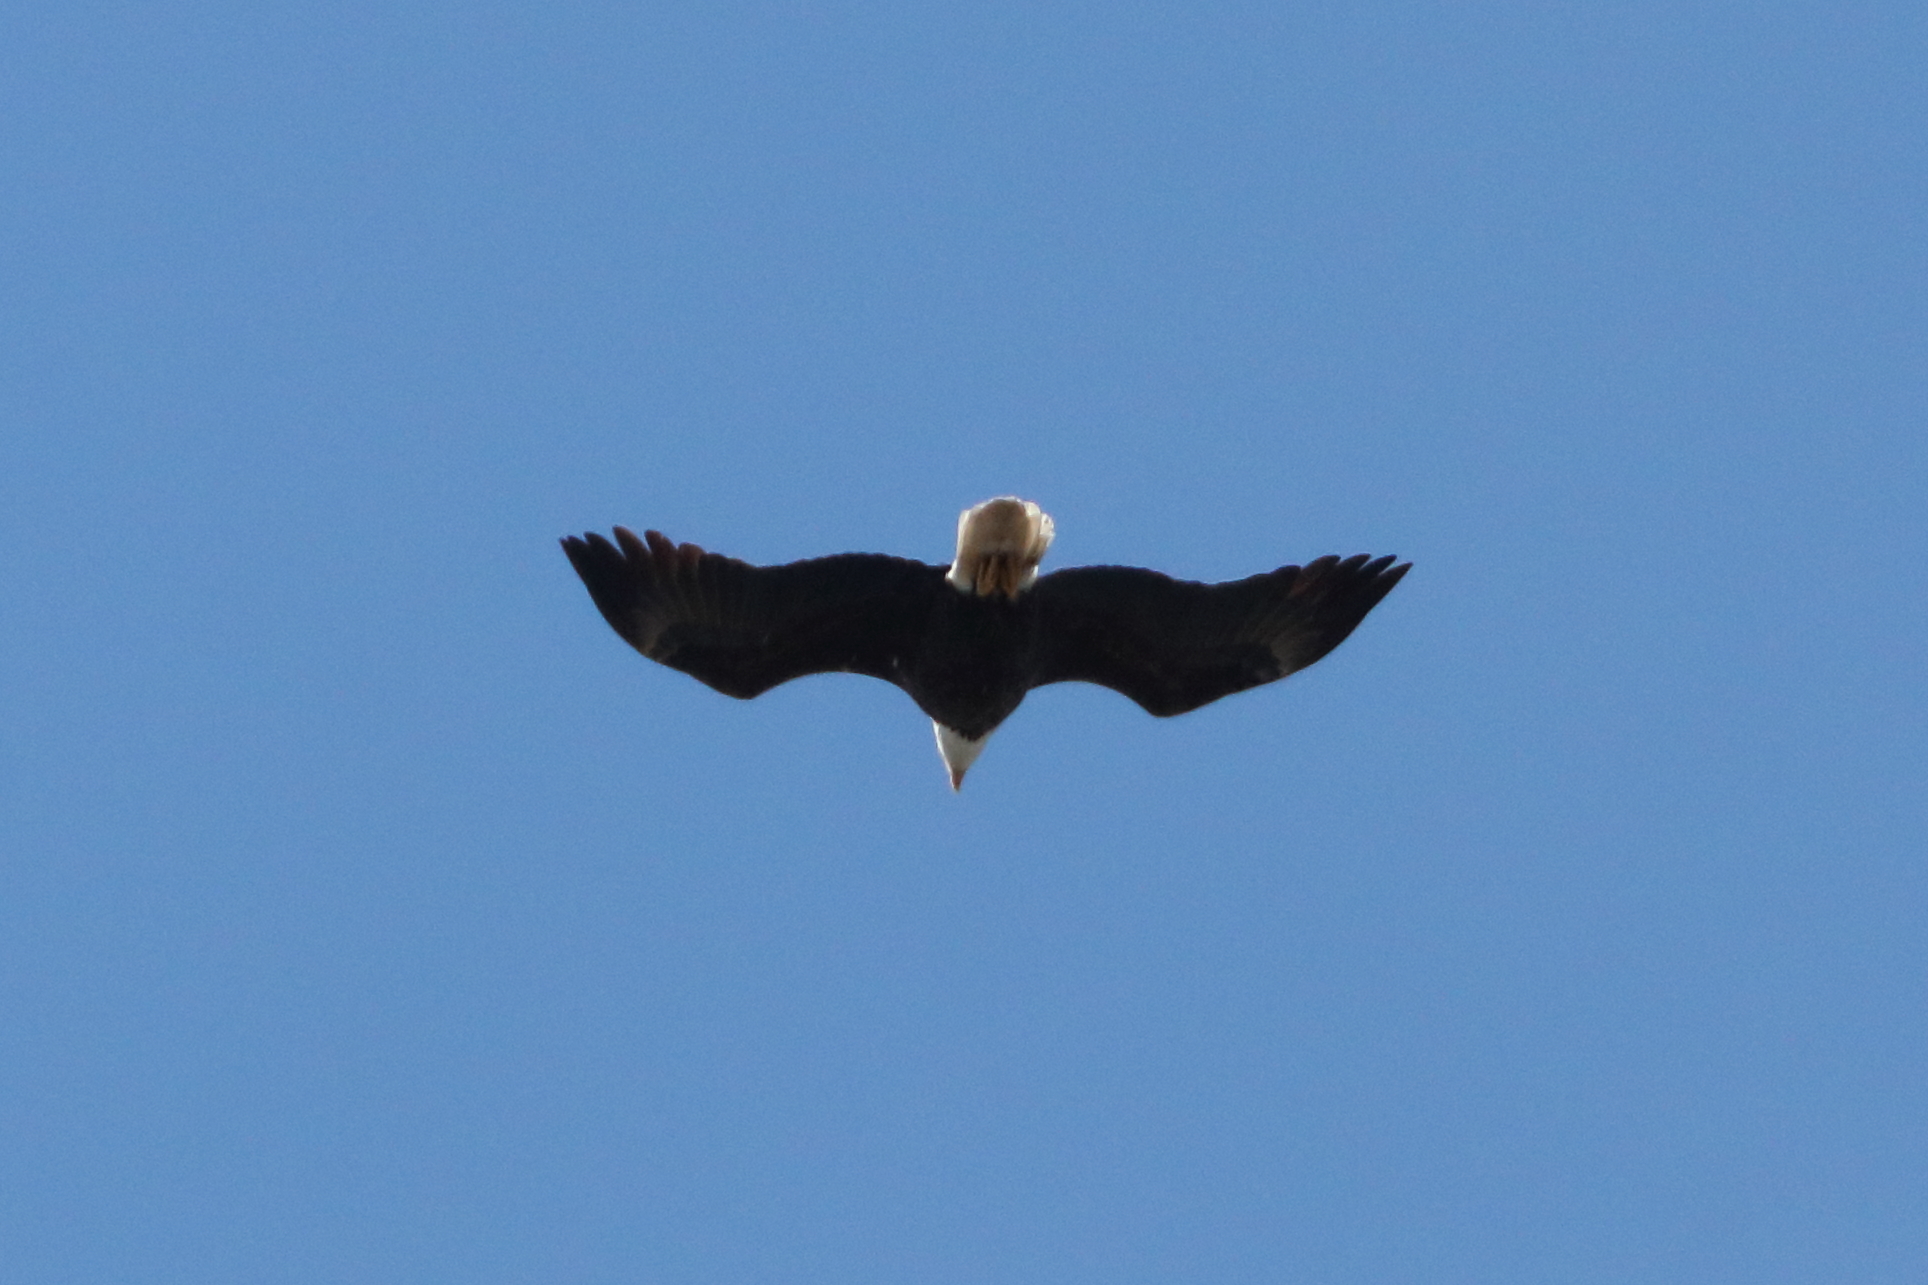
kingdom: Animalia
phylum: Chordata
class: Aves
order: Accipitriformes
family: Accipitridae
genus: Haliaeetus
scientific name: Haliaeetus leucocephalus
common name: Bald eagle
